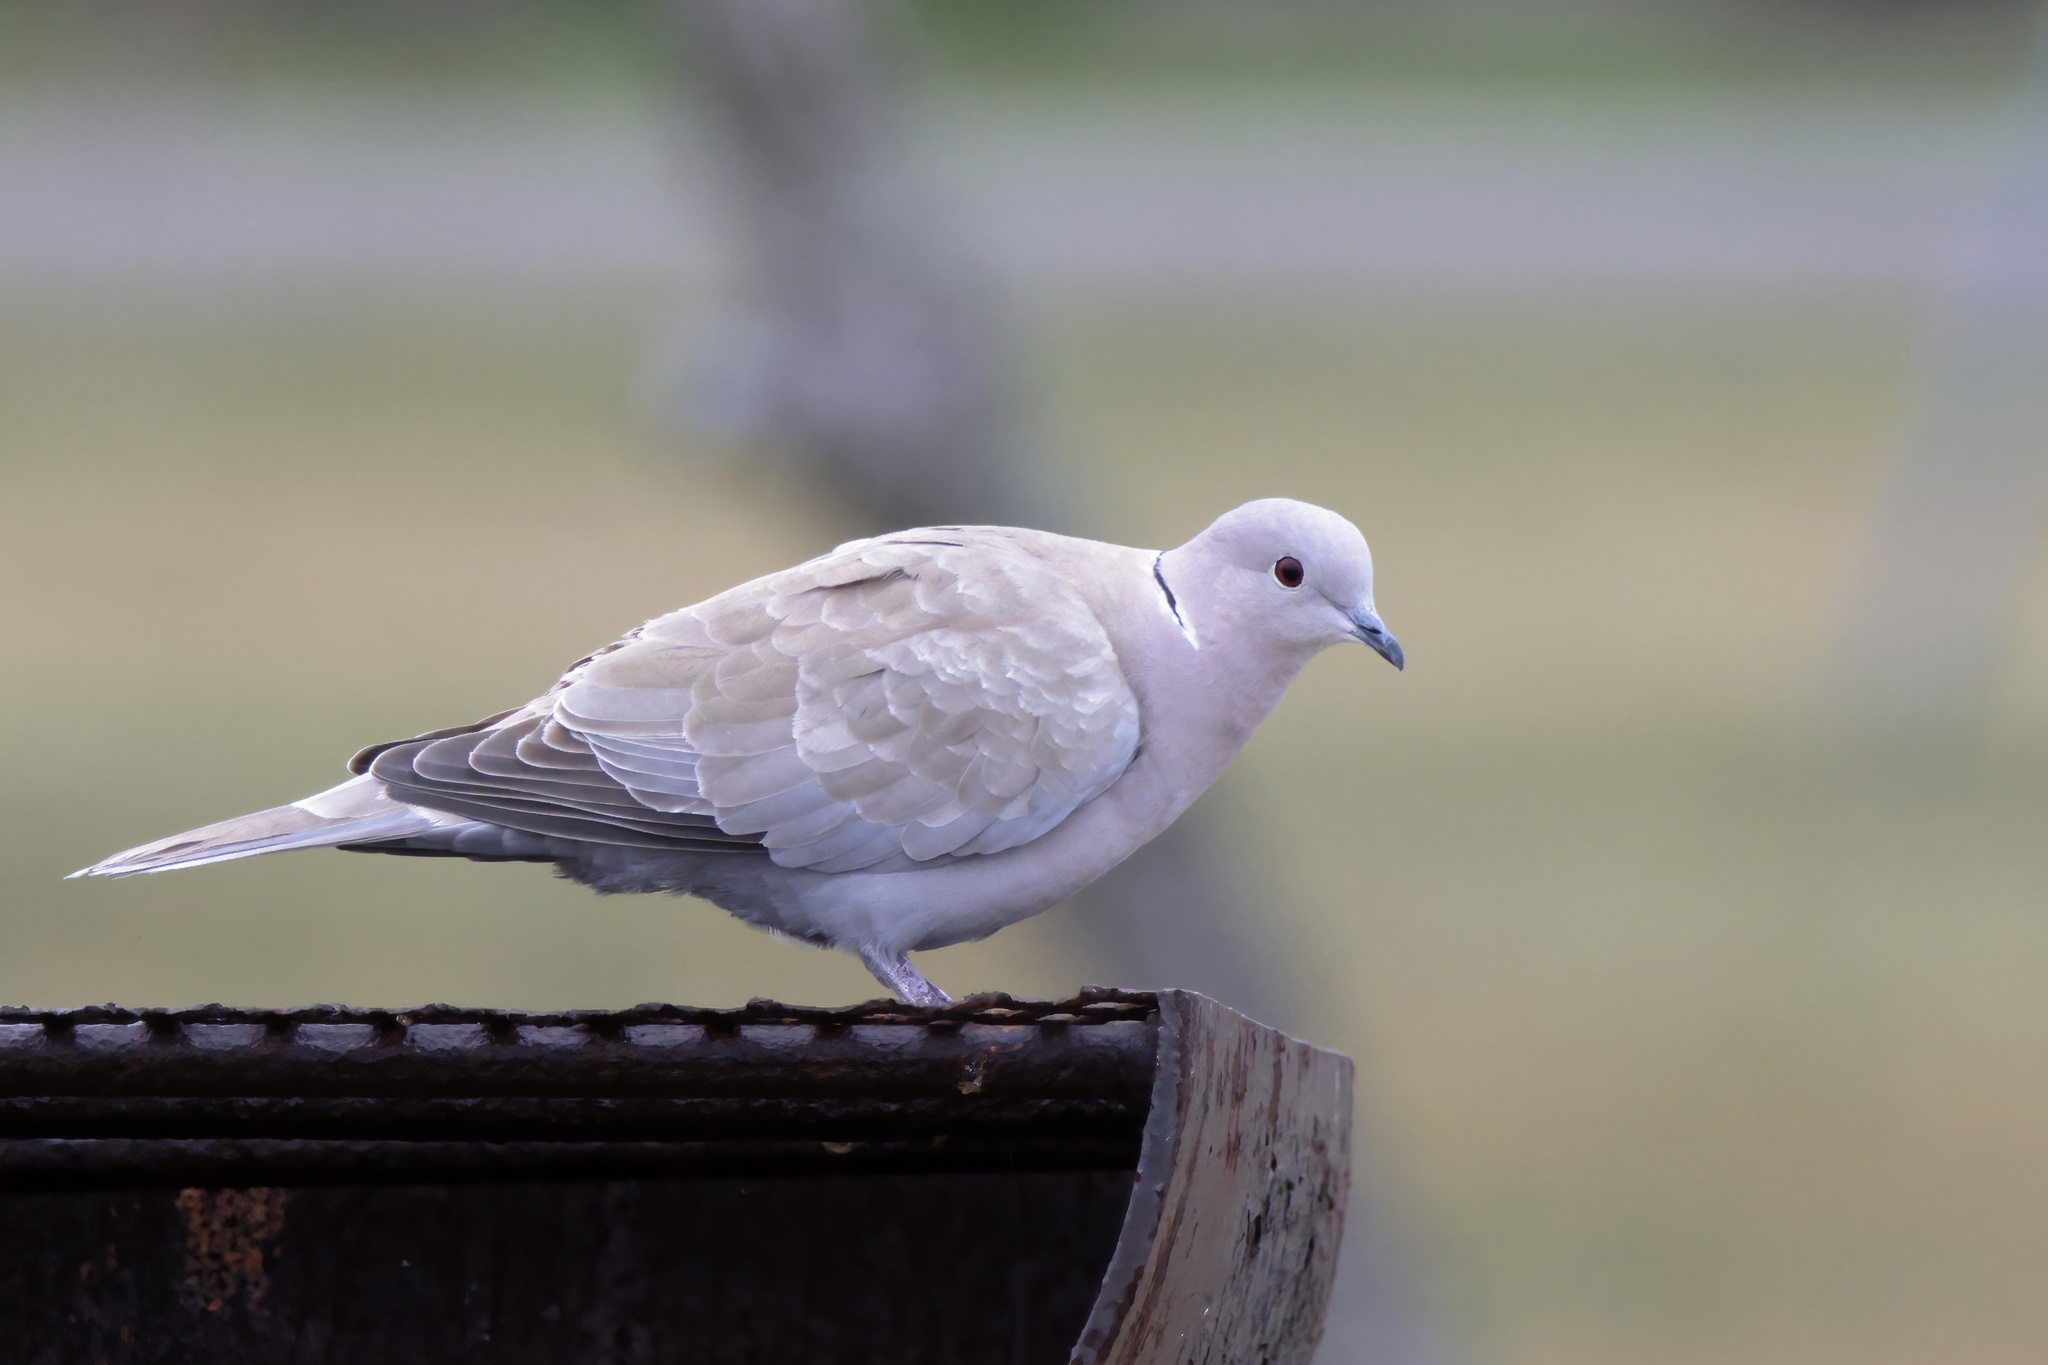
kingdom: Animalia
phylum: Chordata
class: Aves
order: Columbiformes
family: Columbidae
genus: Streptopelia
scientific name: Streptopelia decaocto
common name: Eurasian collared dove
